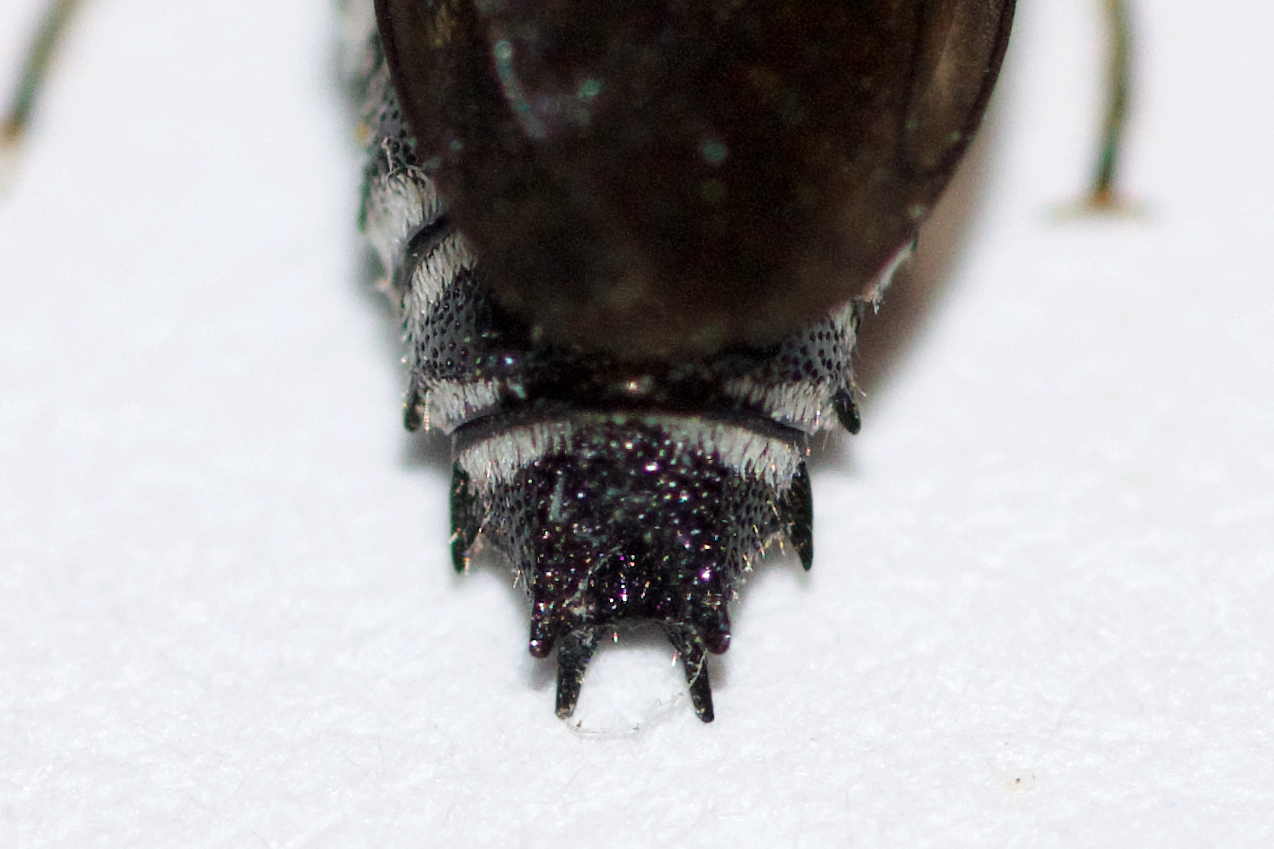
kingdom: Animalia
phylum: Arthropoda
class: Insecta
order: Hymenoptera
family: Megachilidae
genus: Coelioxys
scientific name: Coelioxys sayi
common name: Say's cuckoo leaf-cutter bee
